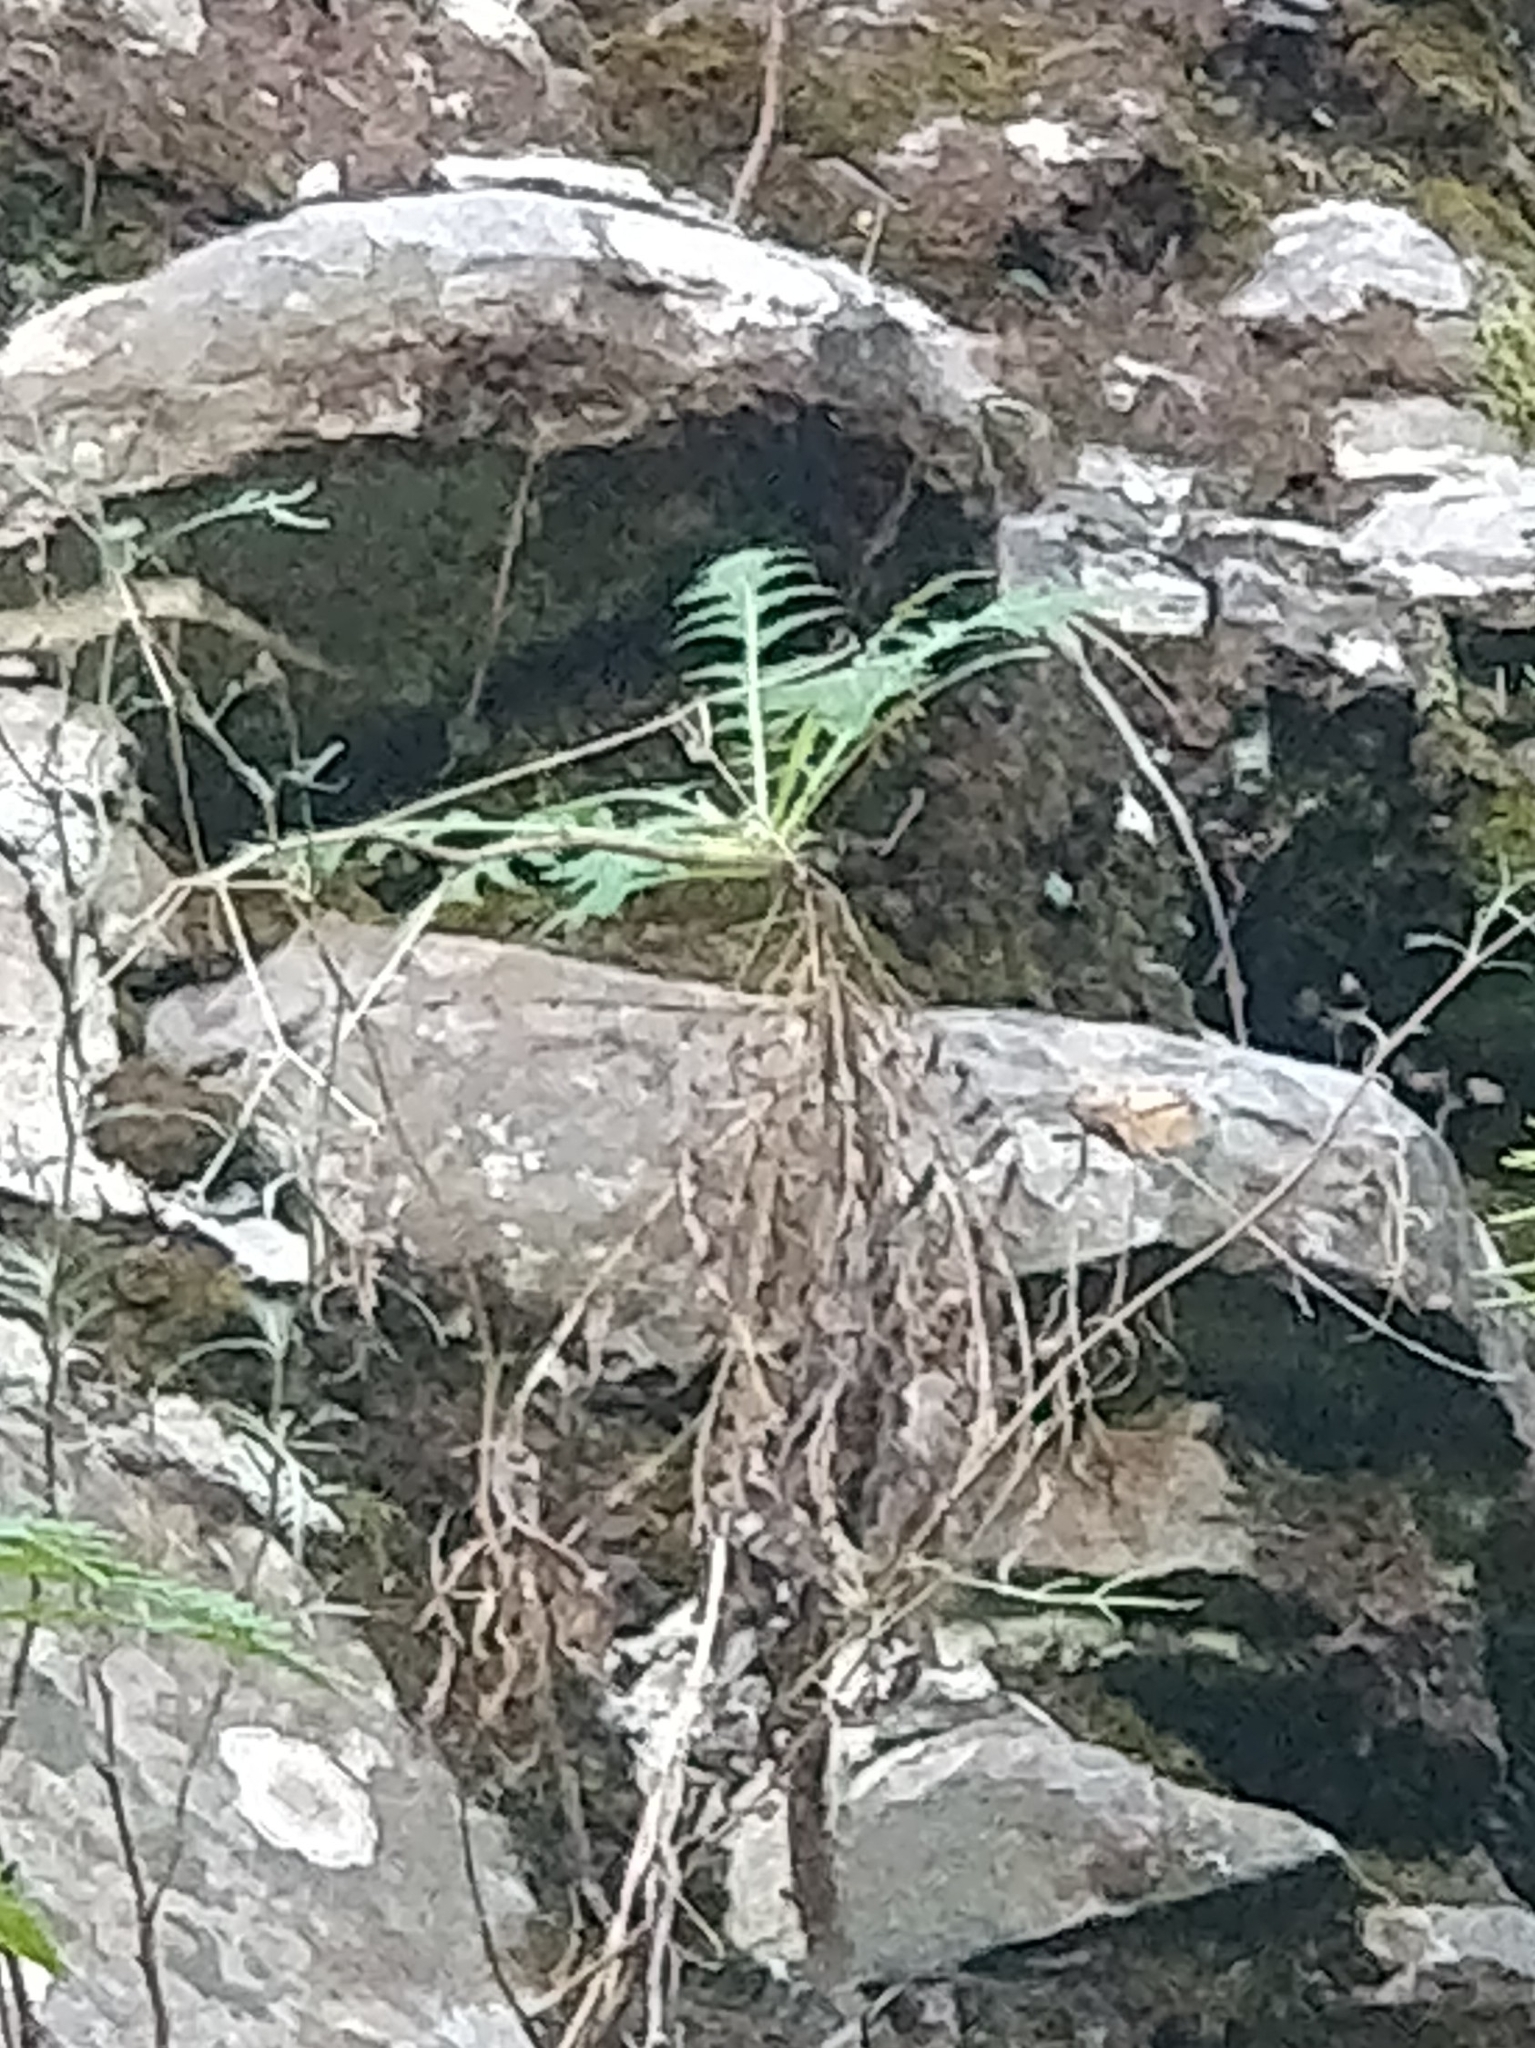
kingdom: Plantae
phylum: Tracheophyta
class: Magnoliopsida
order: Asterales
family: Asteraceae
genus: Sonchus
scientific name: Sonchus pinnatus
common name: Wing-leaved sow-thistle
